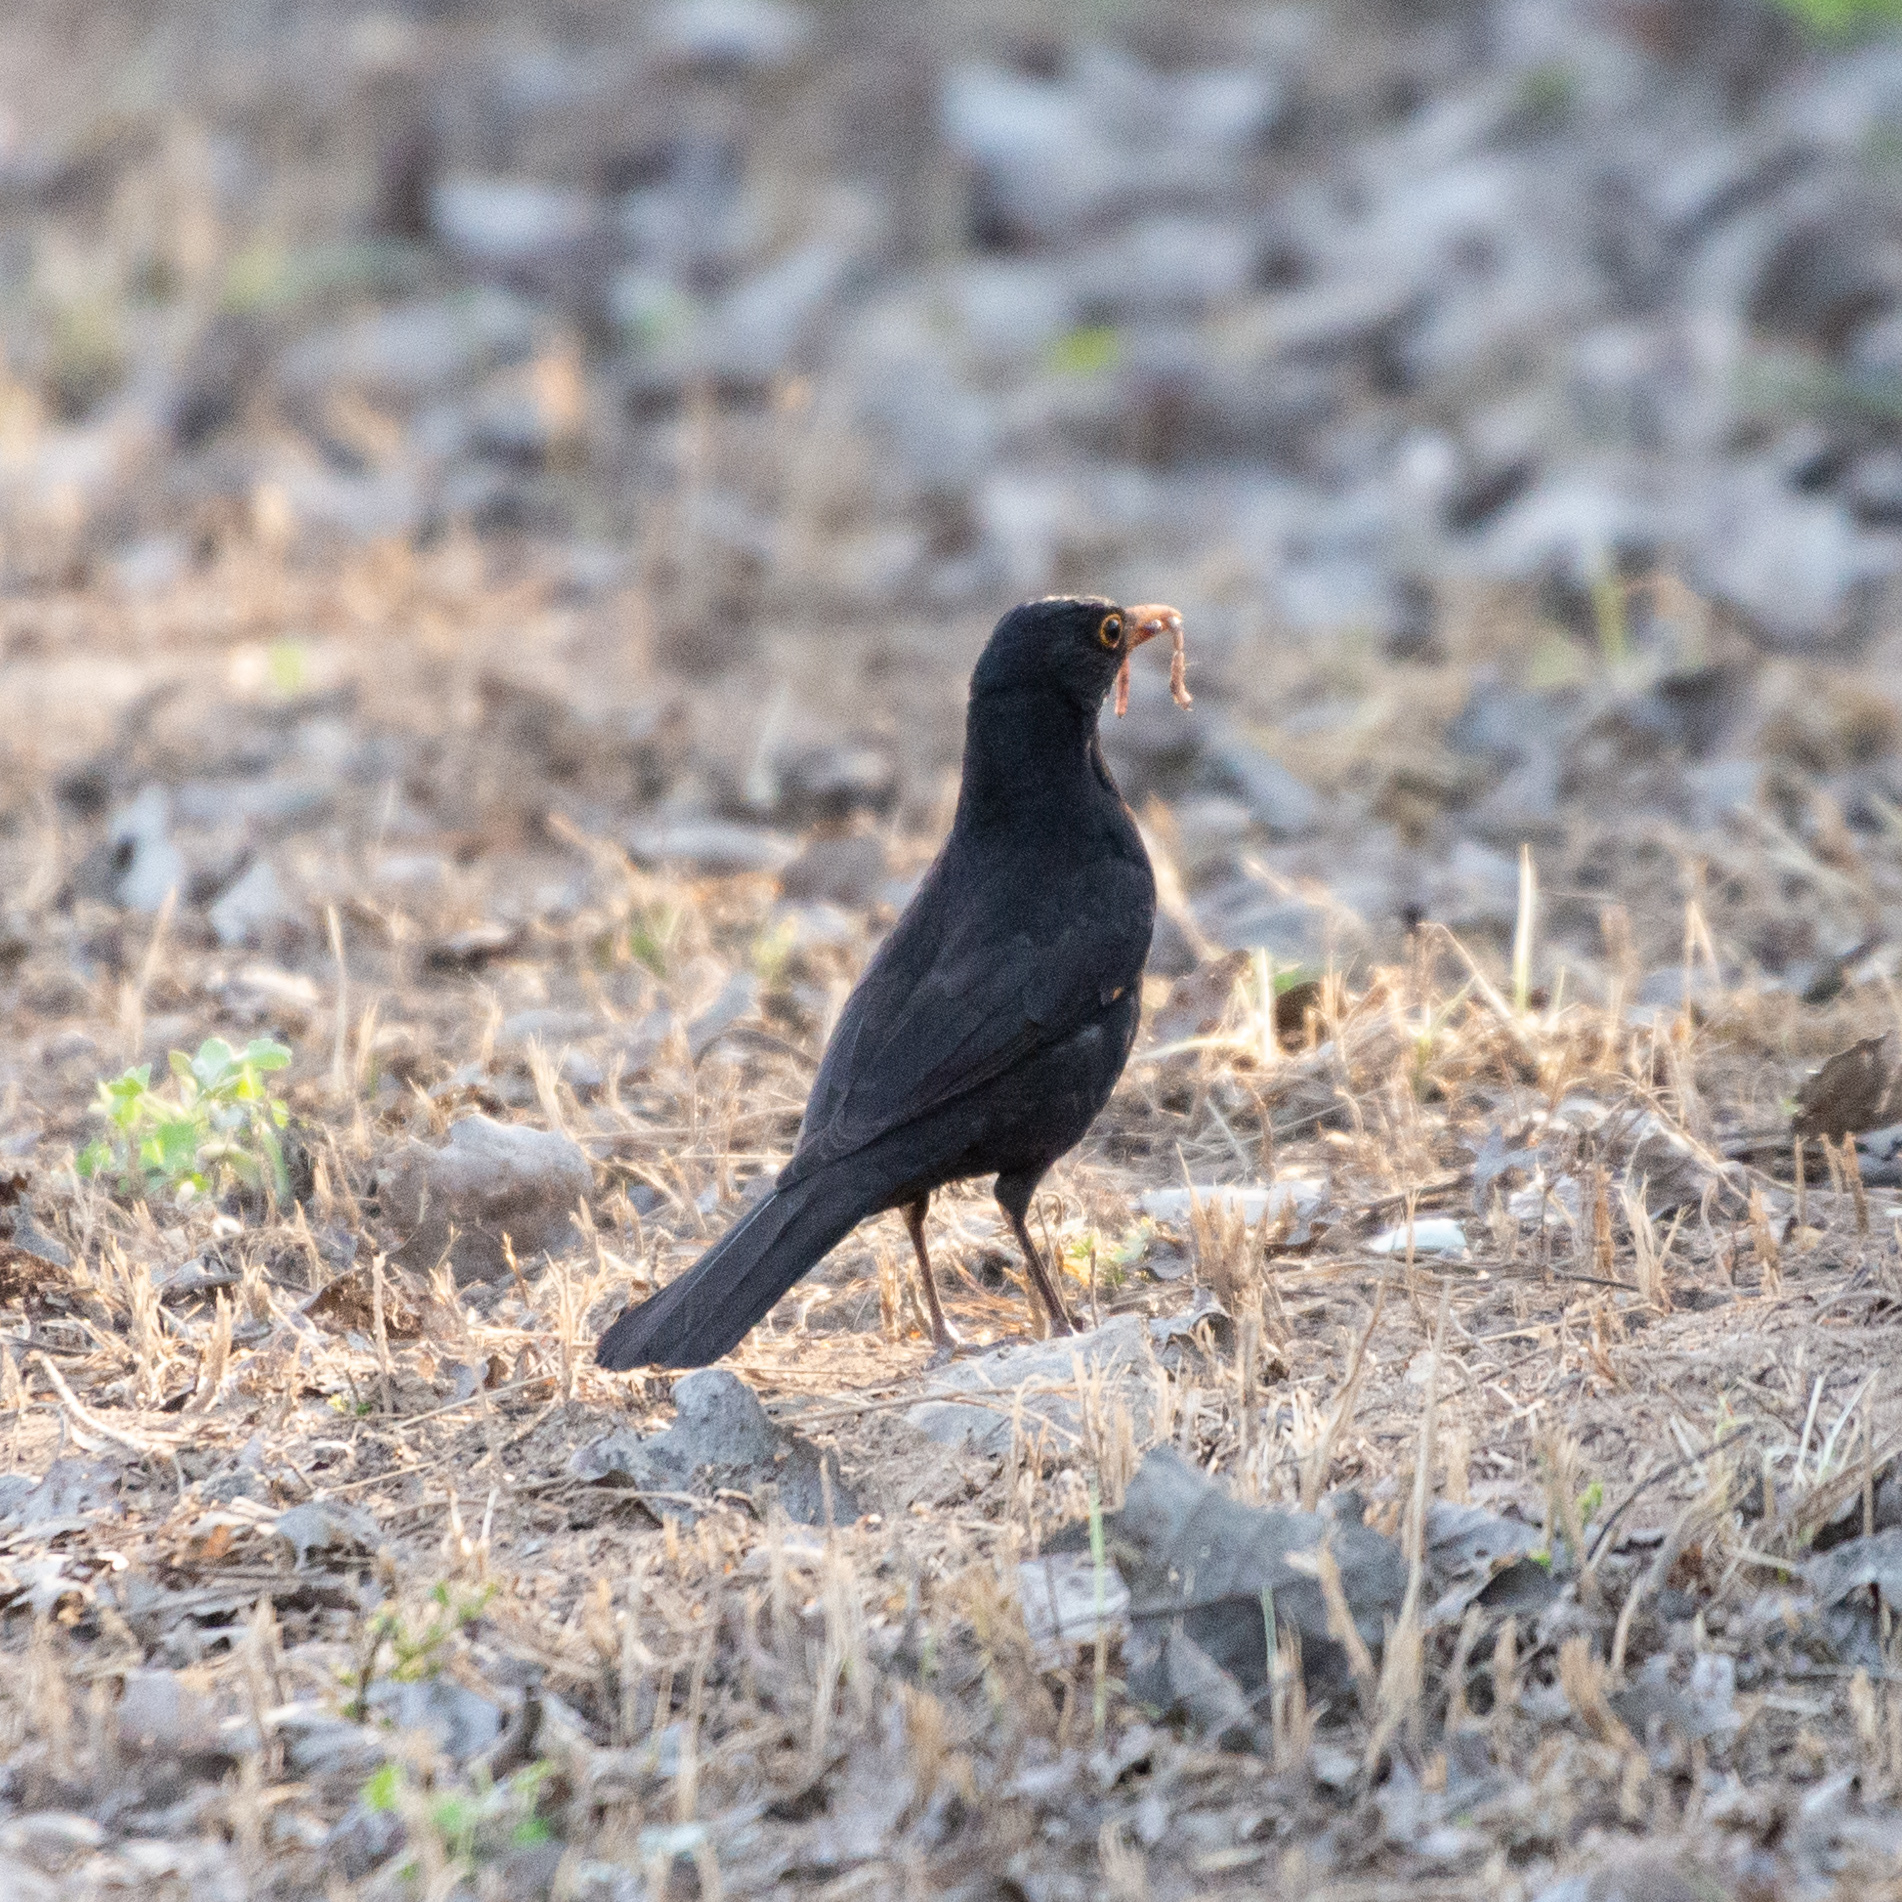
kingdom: Animalia
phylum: Chordata
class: Aves
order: Passeriformes
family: Turdidae
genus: Turdus
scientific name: Turdus merula
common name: Common blackbird
